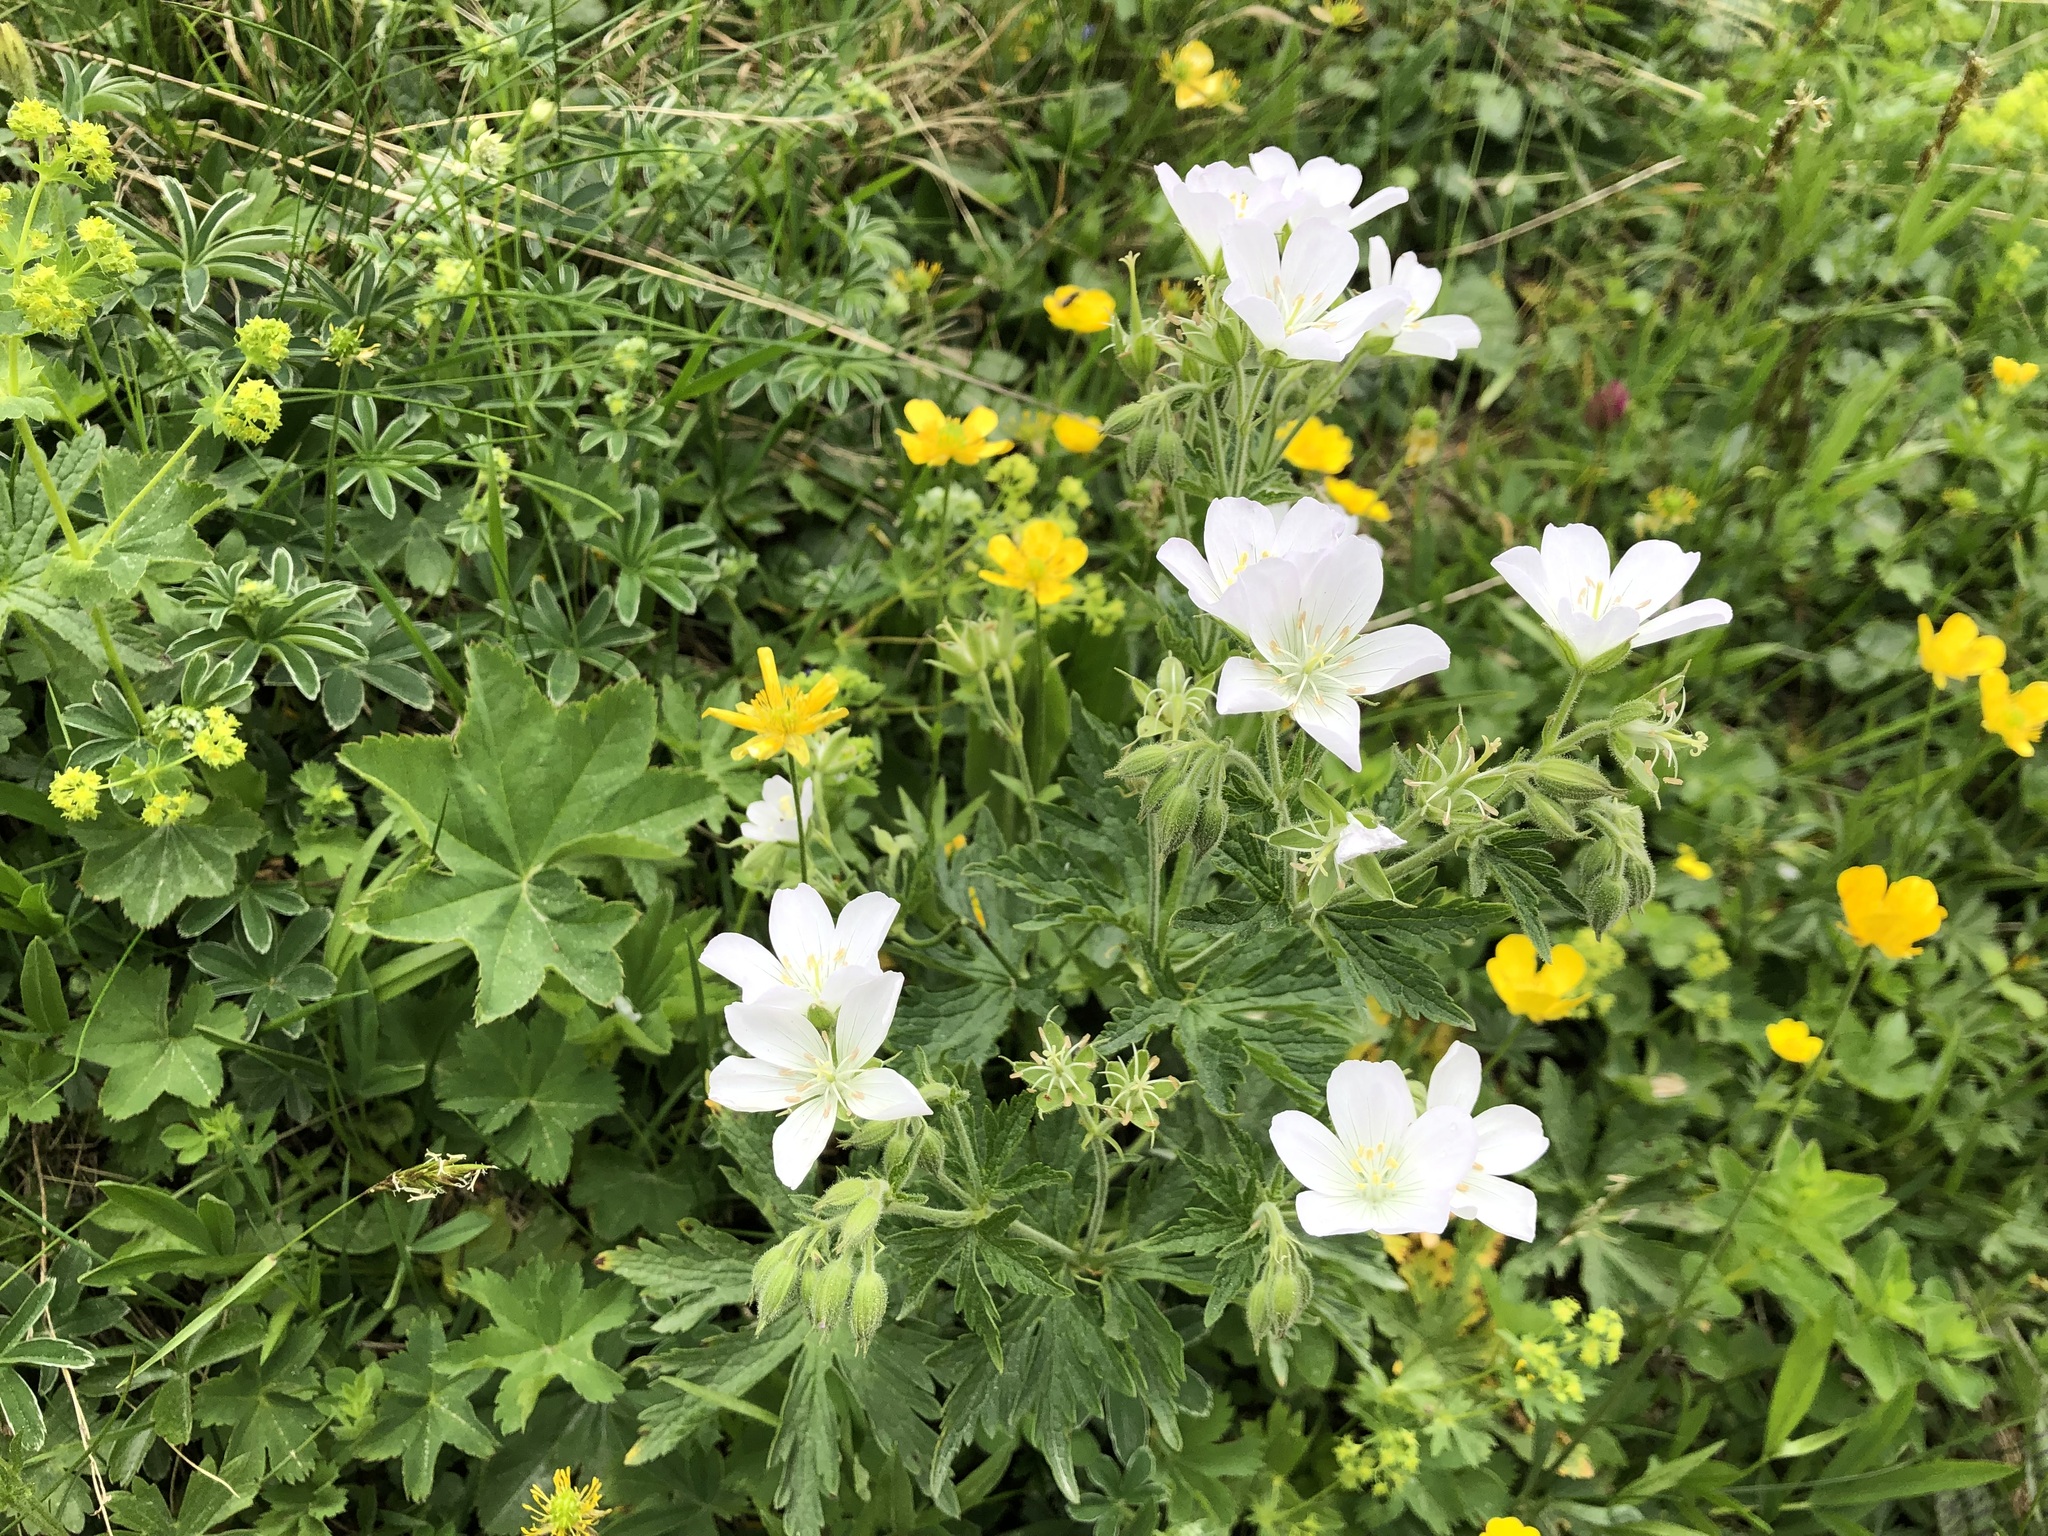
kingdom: Plantae
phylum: Tracheophyta
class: Magnoliopsida
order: Geraniales
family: Geraniaceae
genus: Geranium
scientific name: Geranium sylvaticum
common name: Wood crane's-bill
